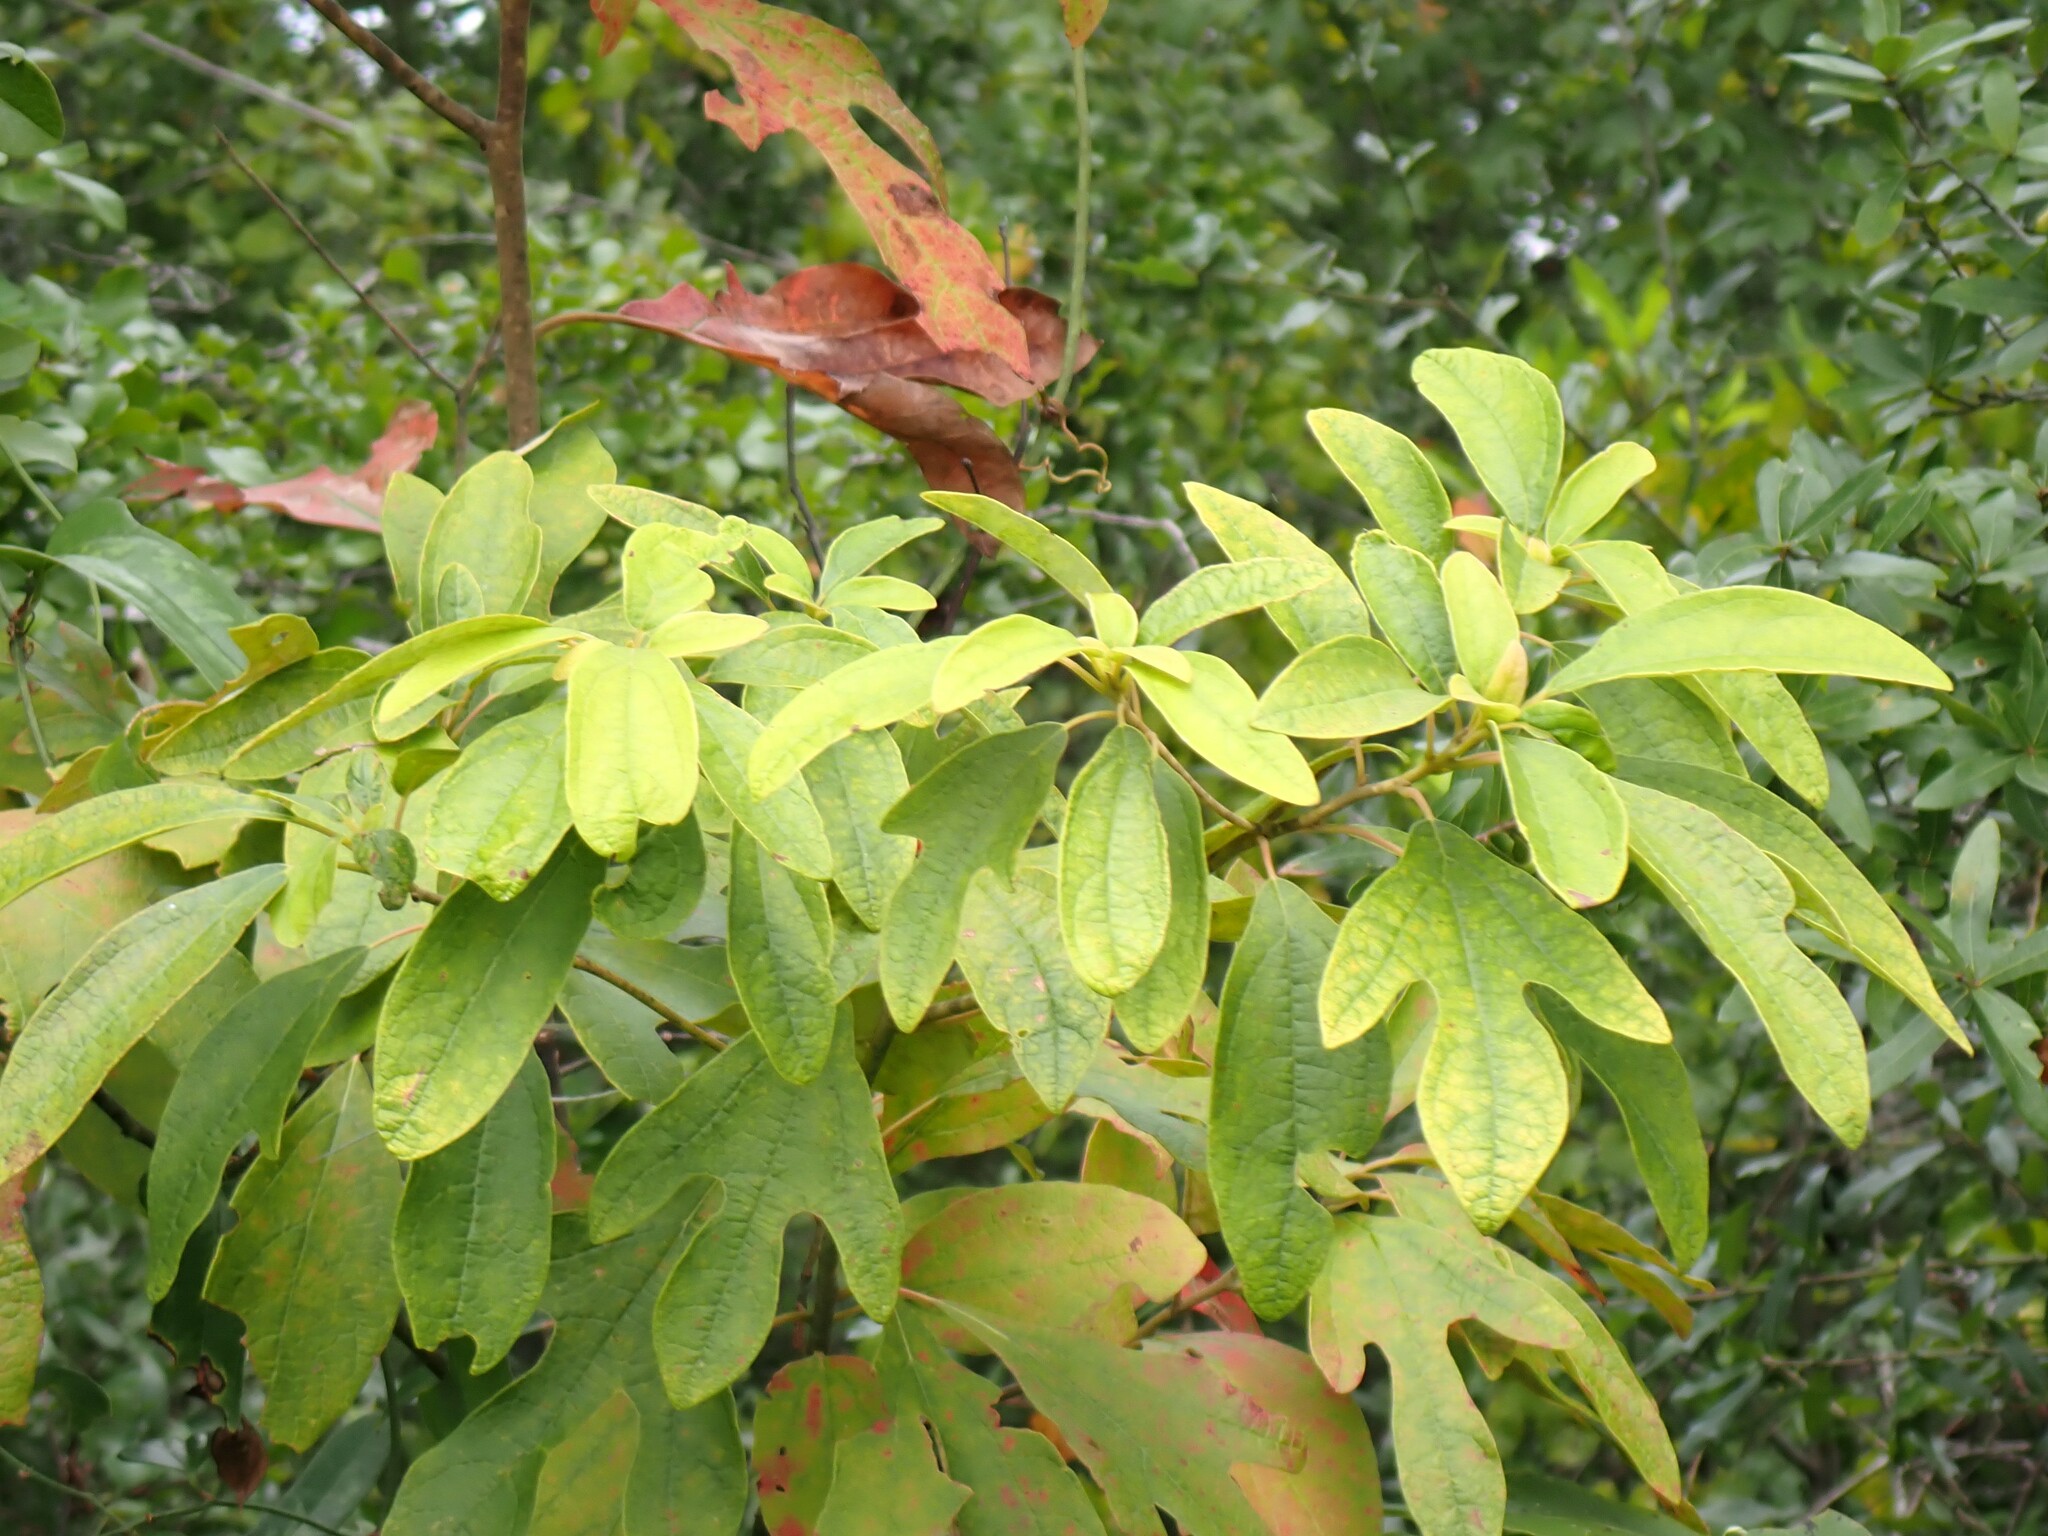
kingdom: Plantae
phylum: Tracheophyta
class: Magnoliopsida
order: Laurales
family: Lauraceae
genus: Sassafras
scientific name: Sassafras albidum
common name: Sassafras
